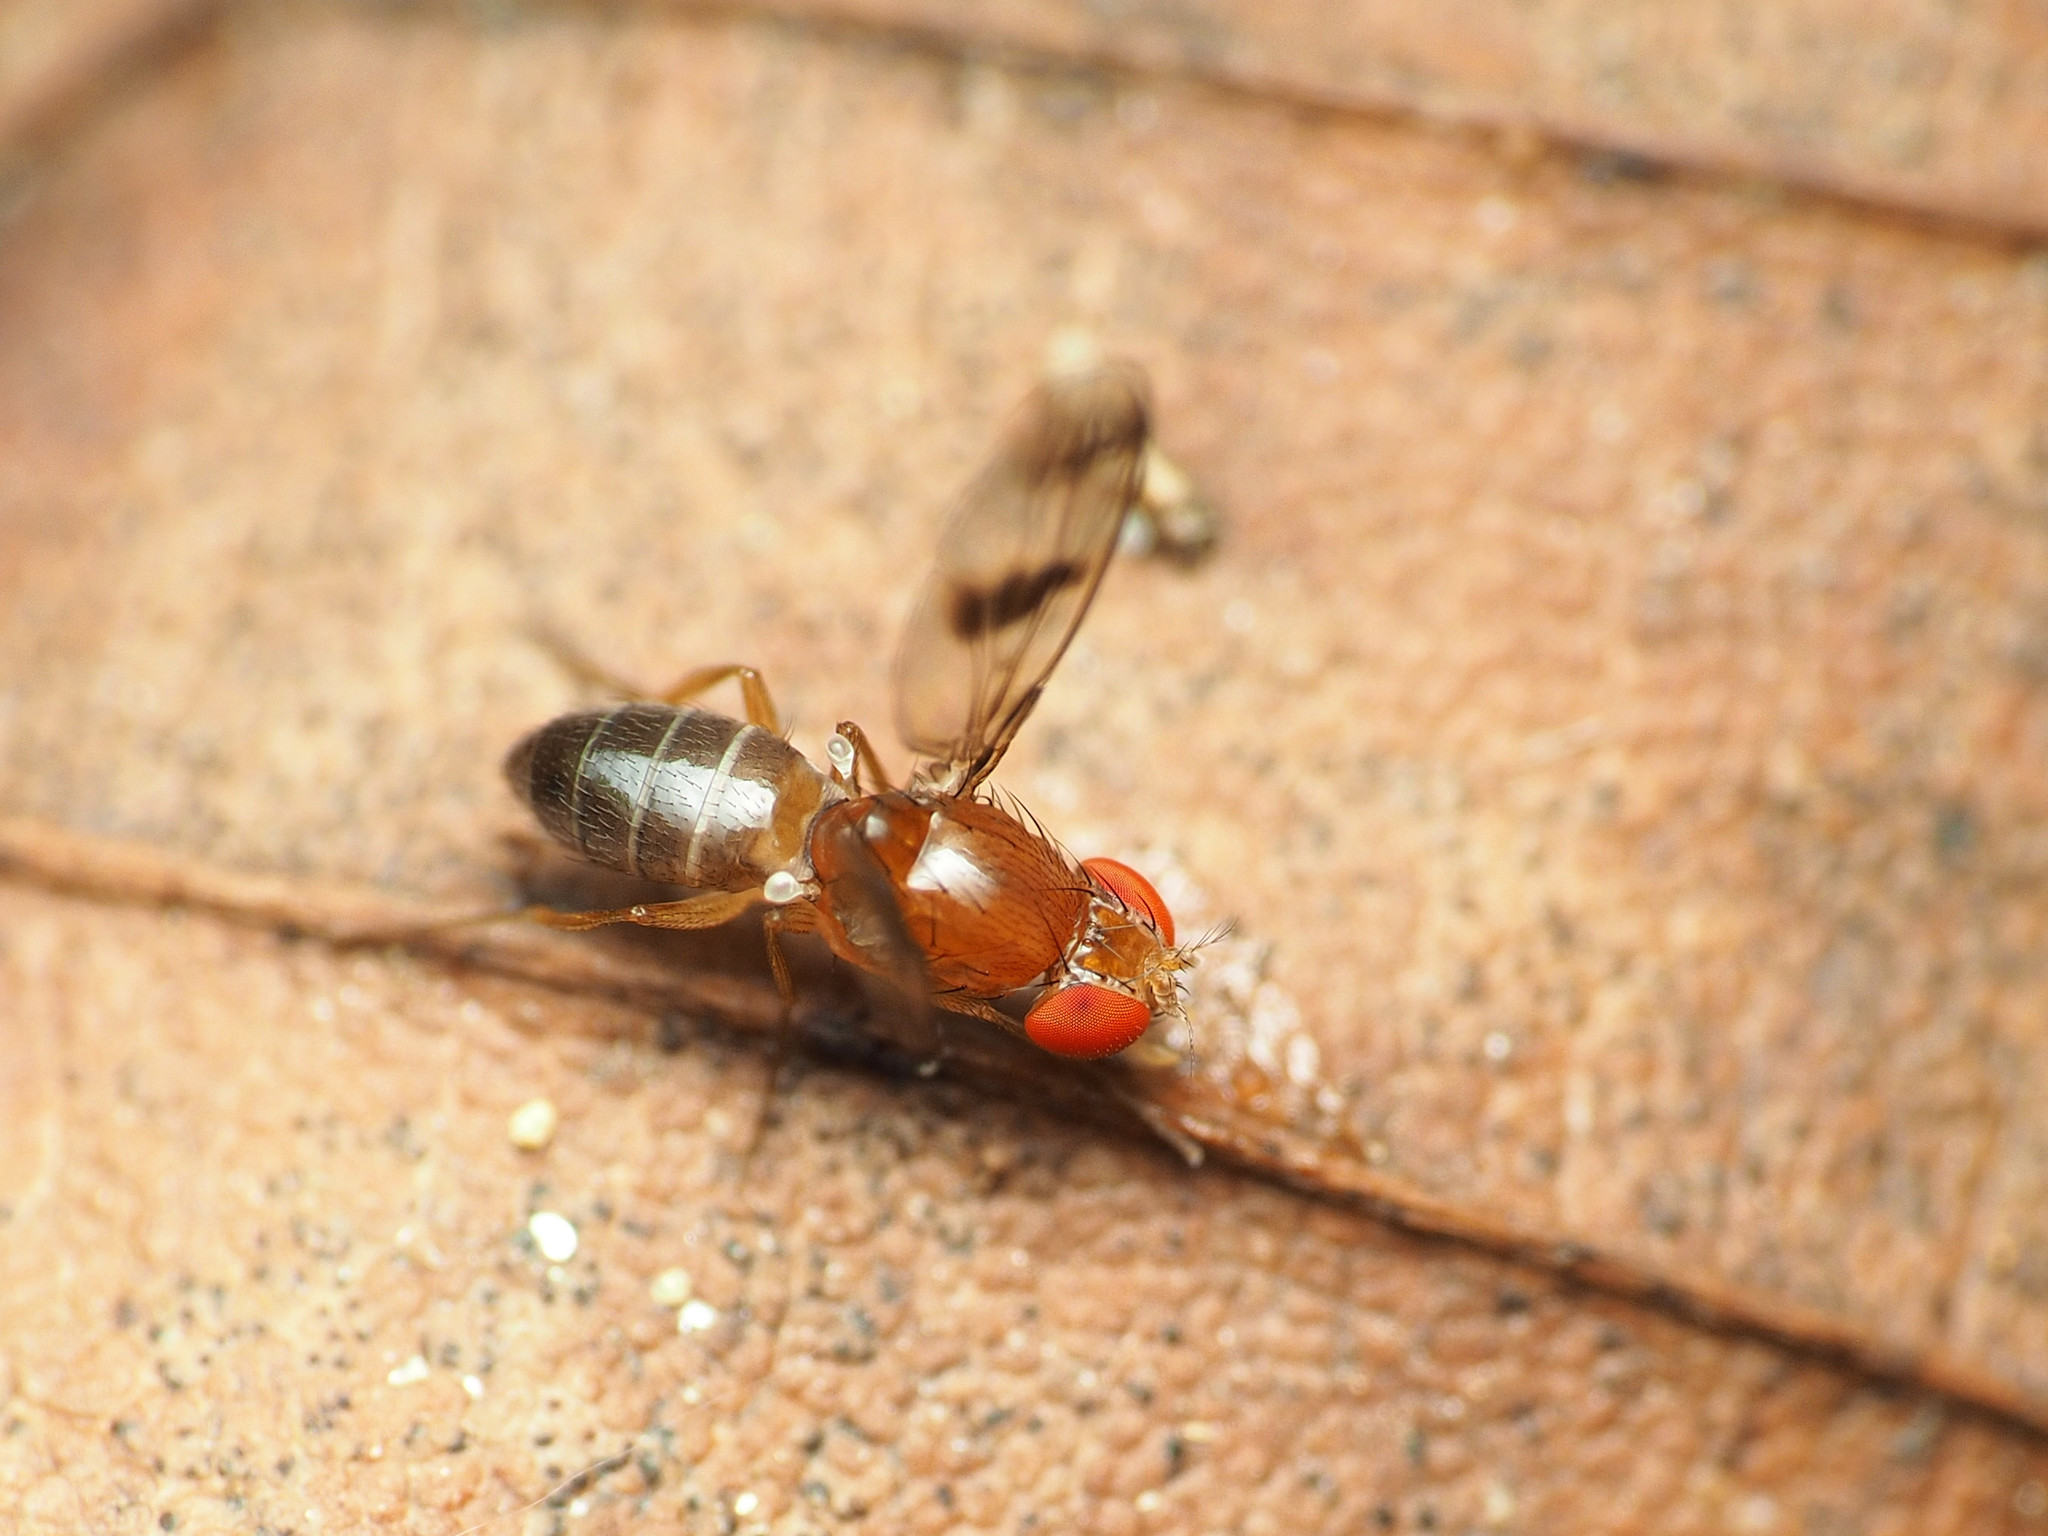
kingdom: Animalia
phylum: Arthropoda
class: Insecta
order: Diptera
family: Drosophilidae
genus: Chymomyza
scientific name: Chymomyza amoena
